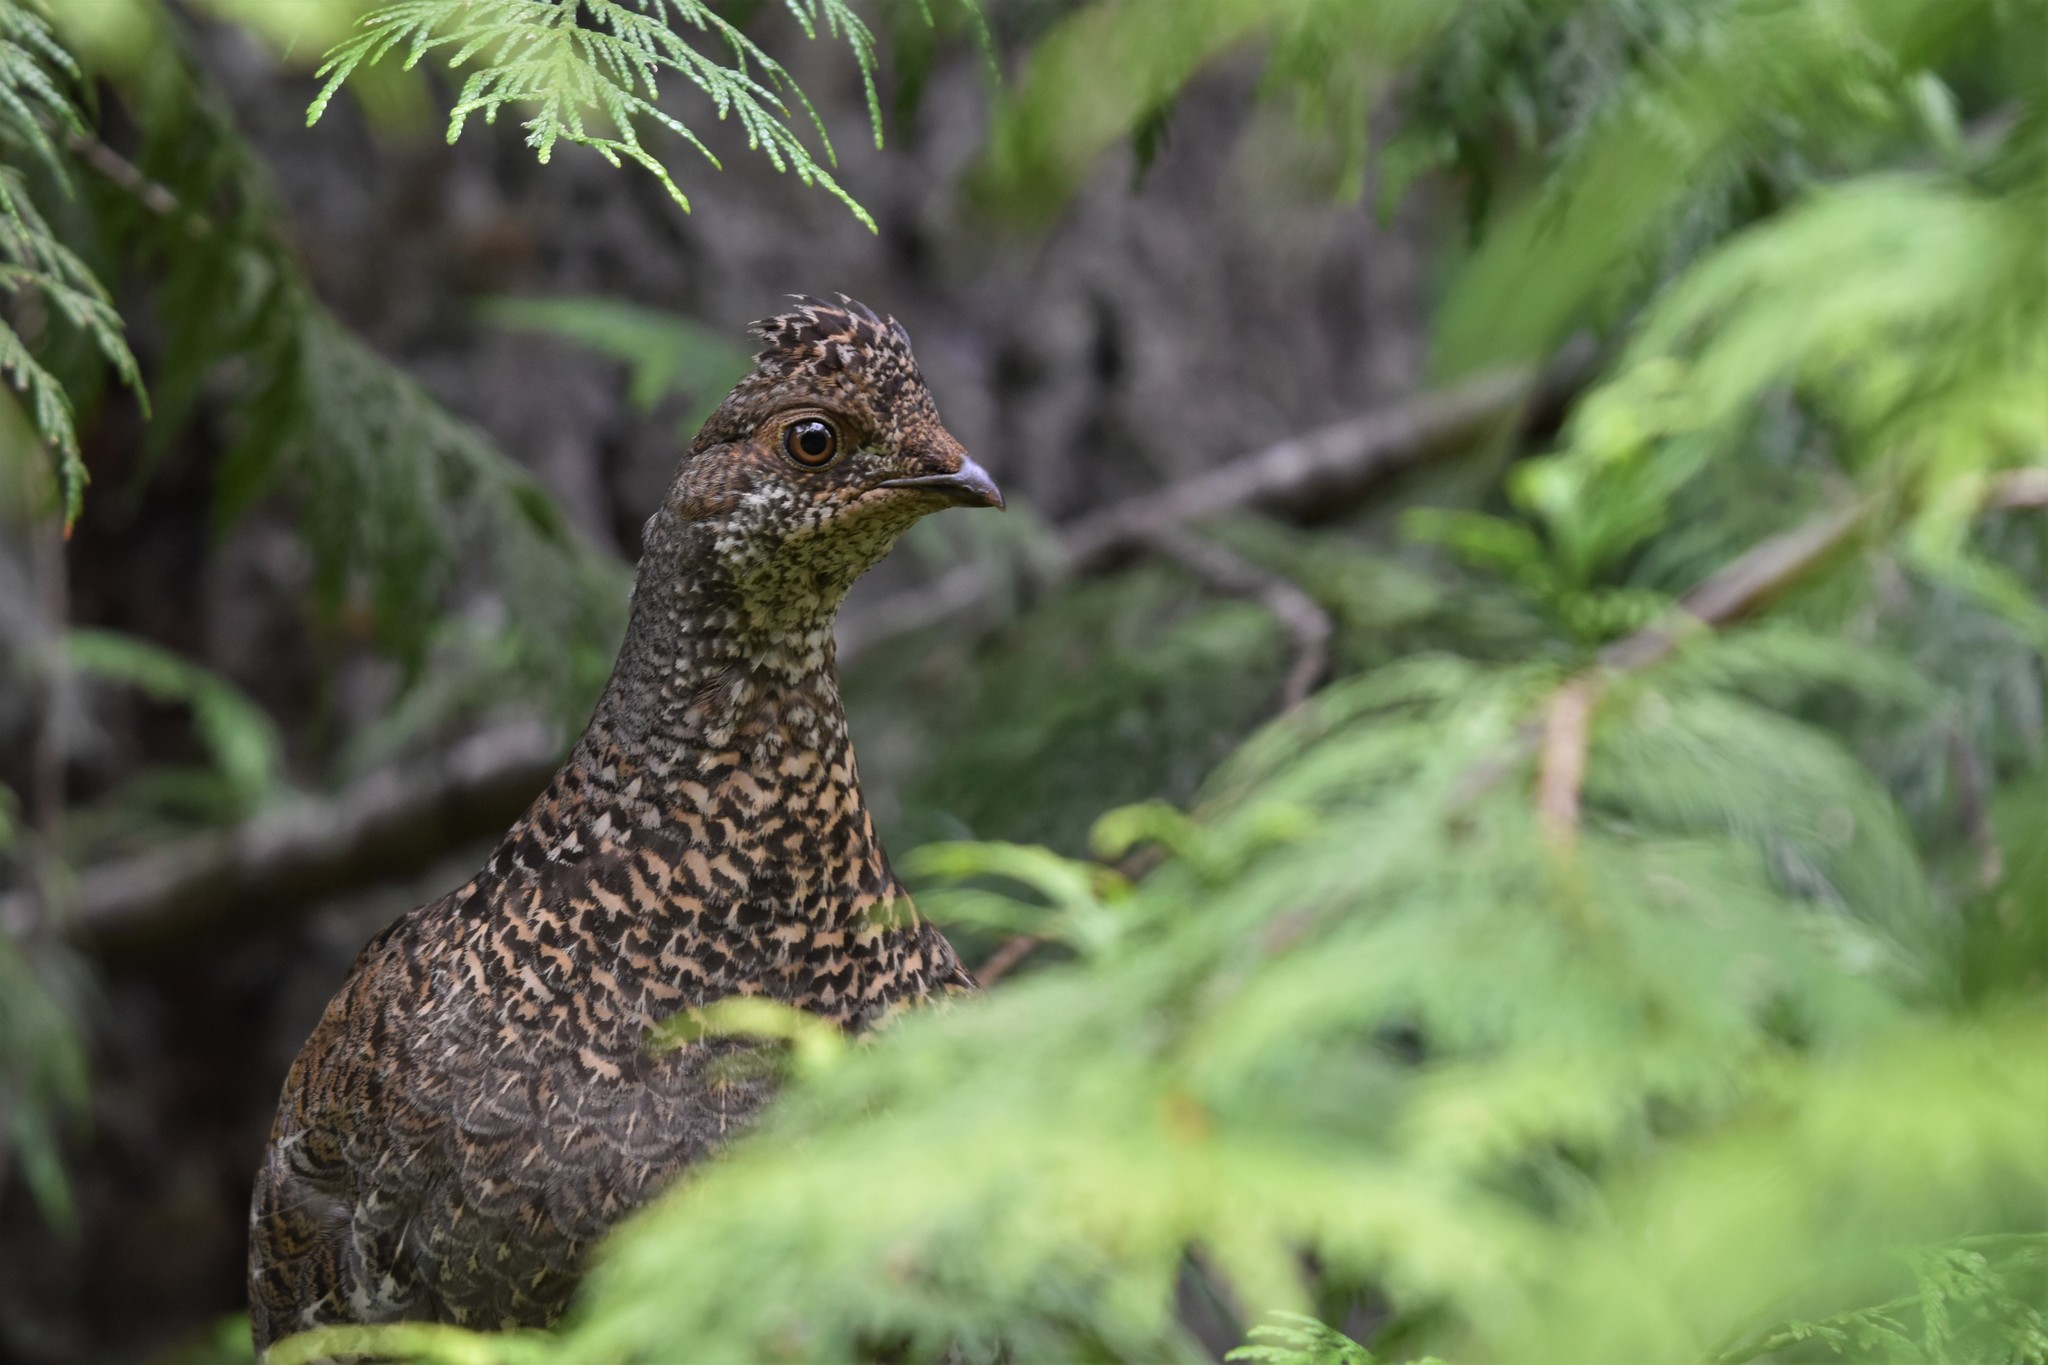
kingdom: Animalia
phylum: Chordata
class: Aves
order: Galliformes
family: Phasianidae
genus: Dendragapus
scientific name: Dendragapus fuliginosus
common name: Sooty grouse
